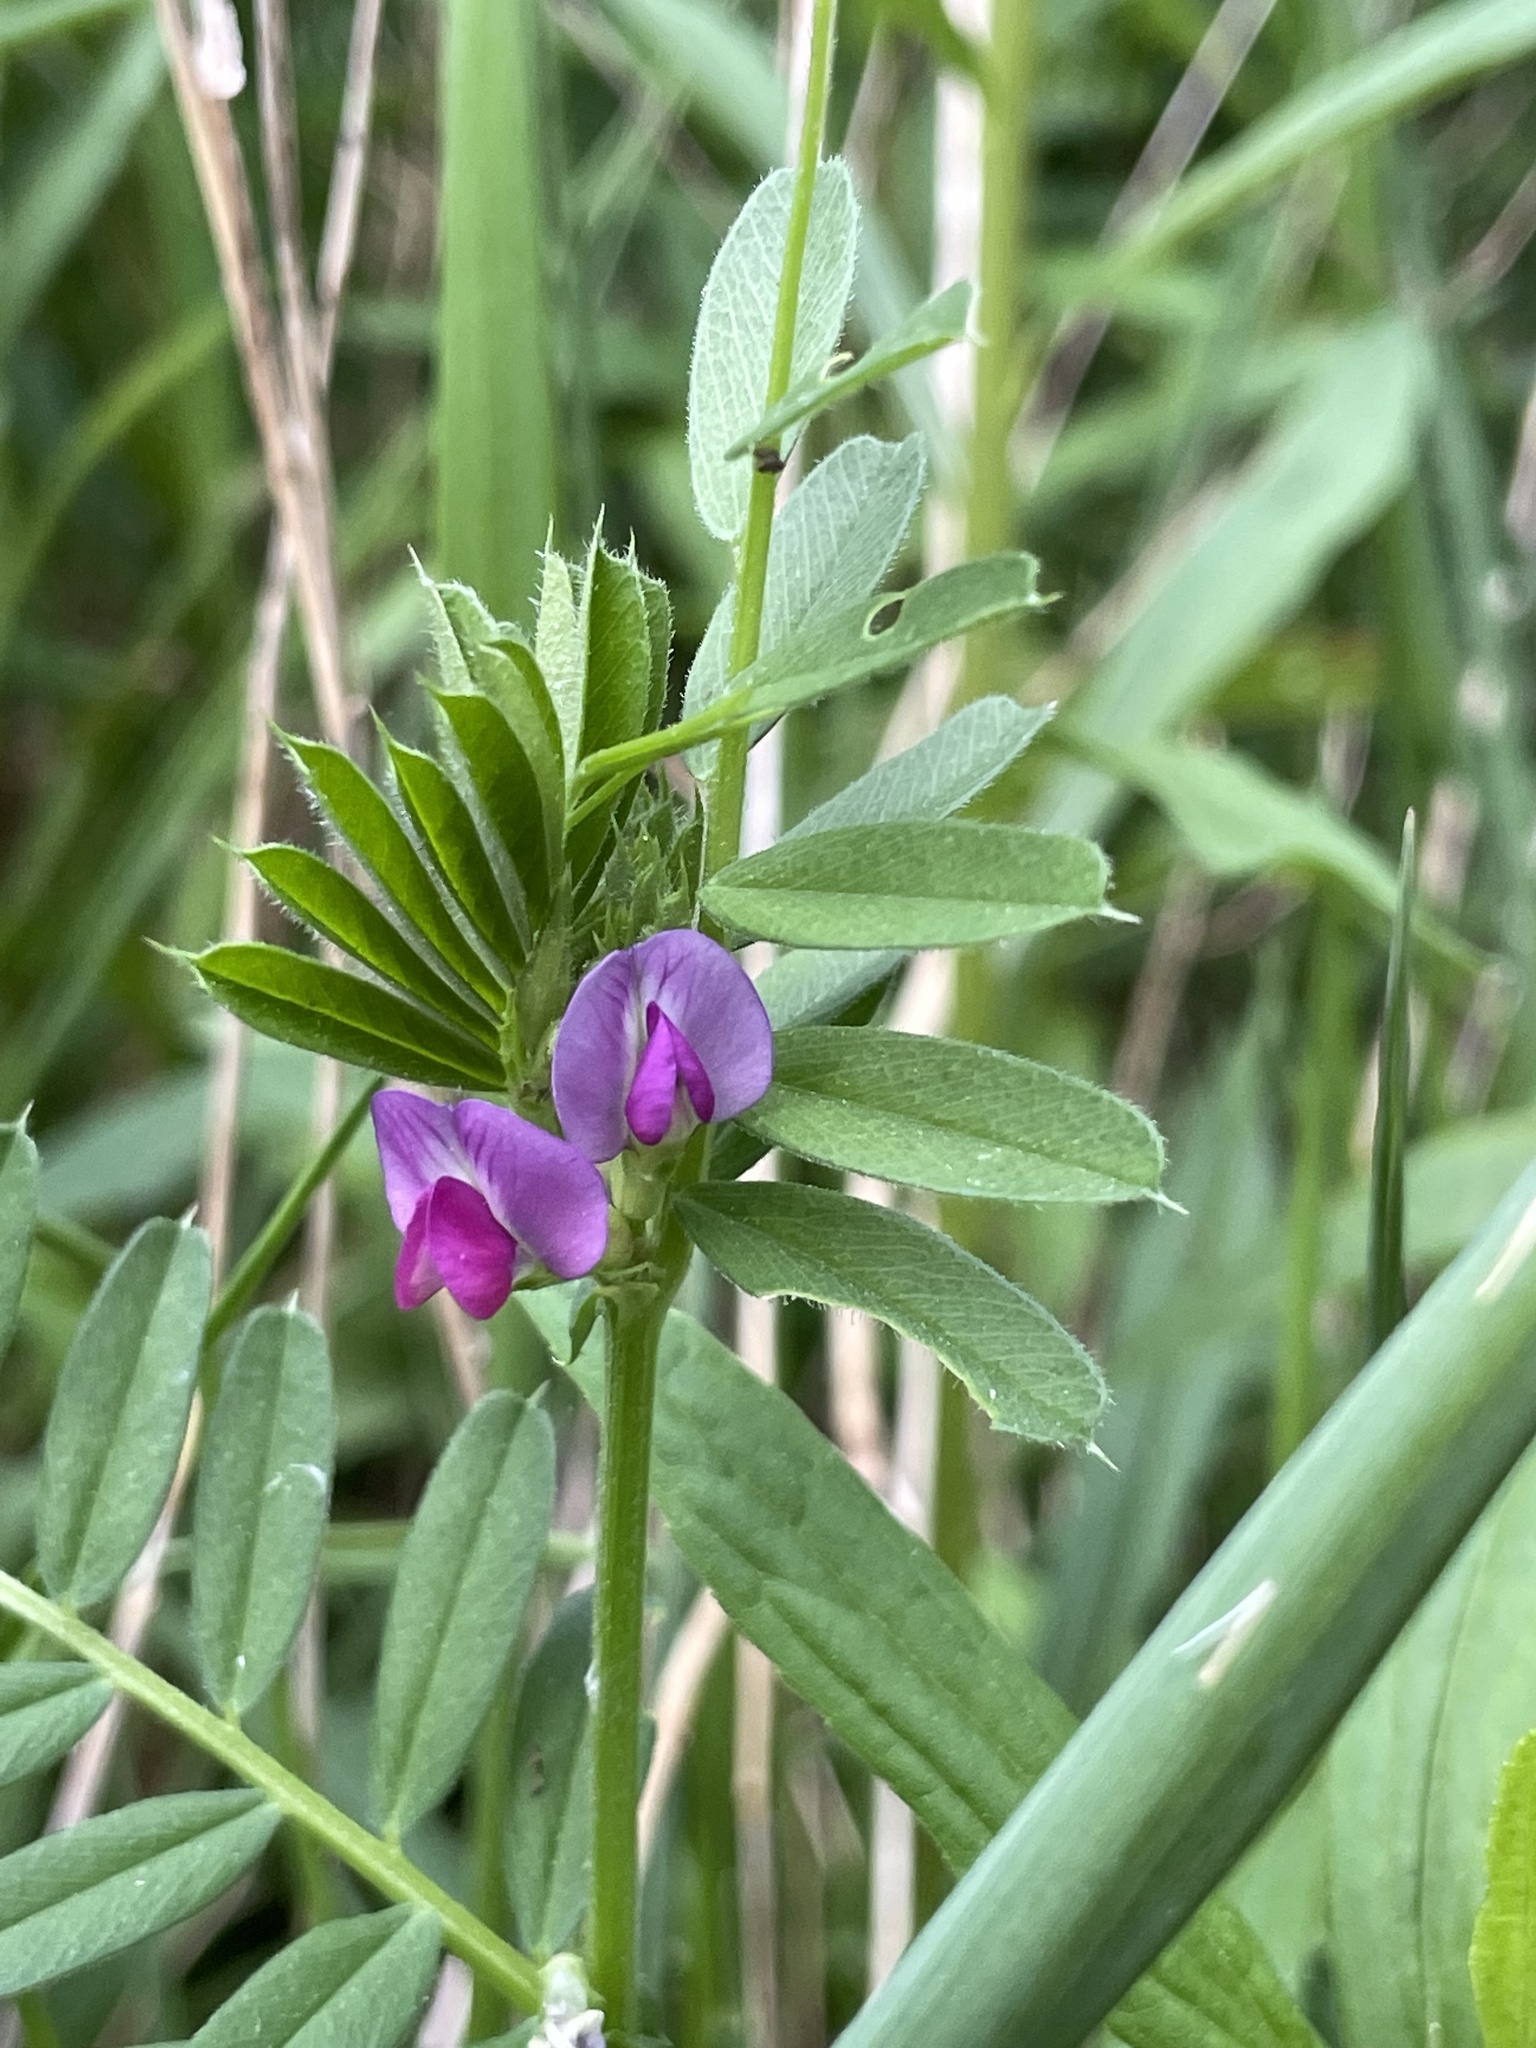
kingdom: Plantae
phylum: Tracheophyta
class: Magnoliopsida
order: Fabales
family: Fabaceae
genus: Vicia
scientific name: Vicia sativa
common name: Garden vetch
